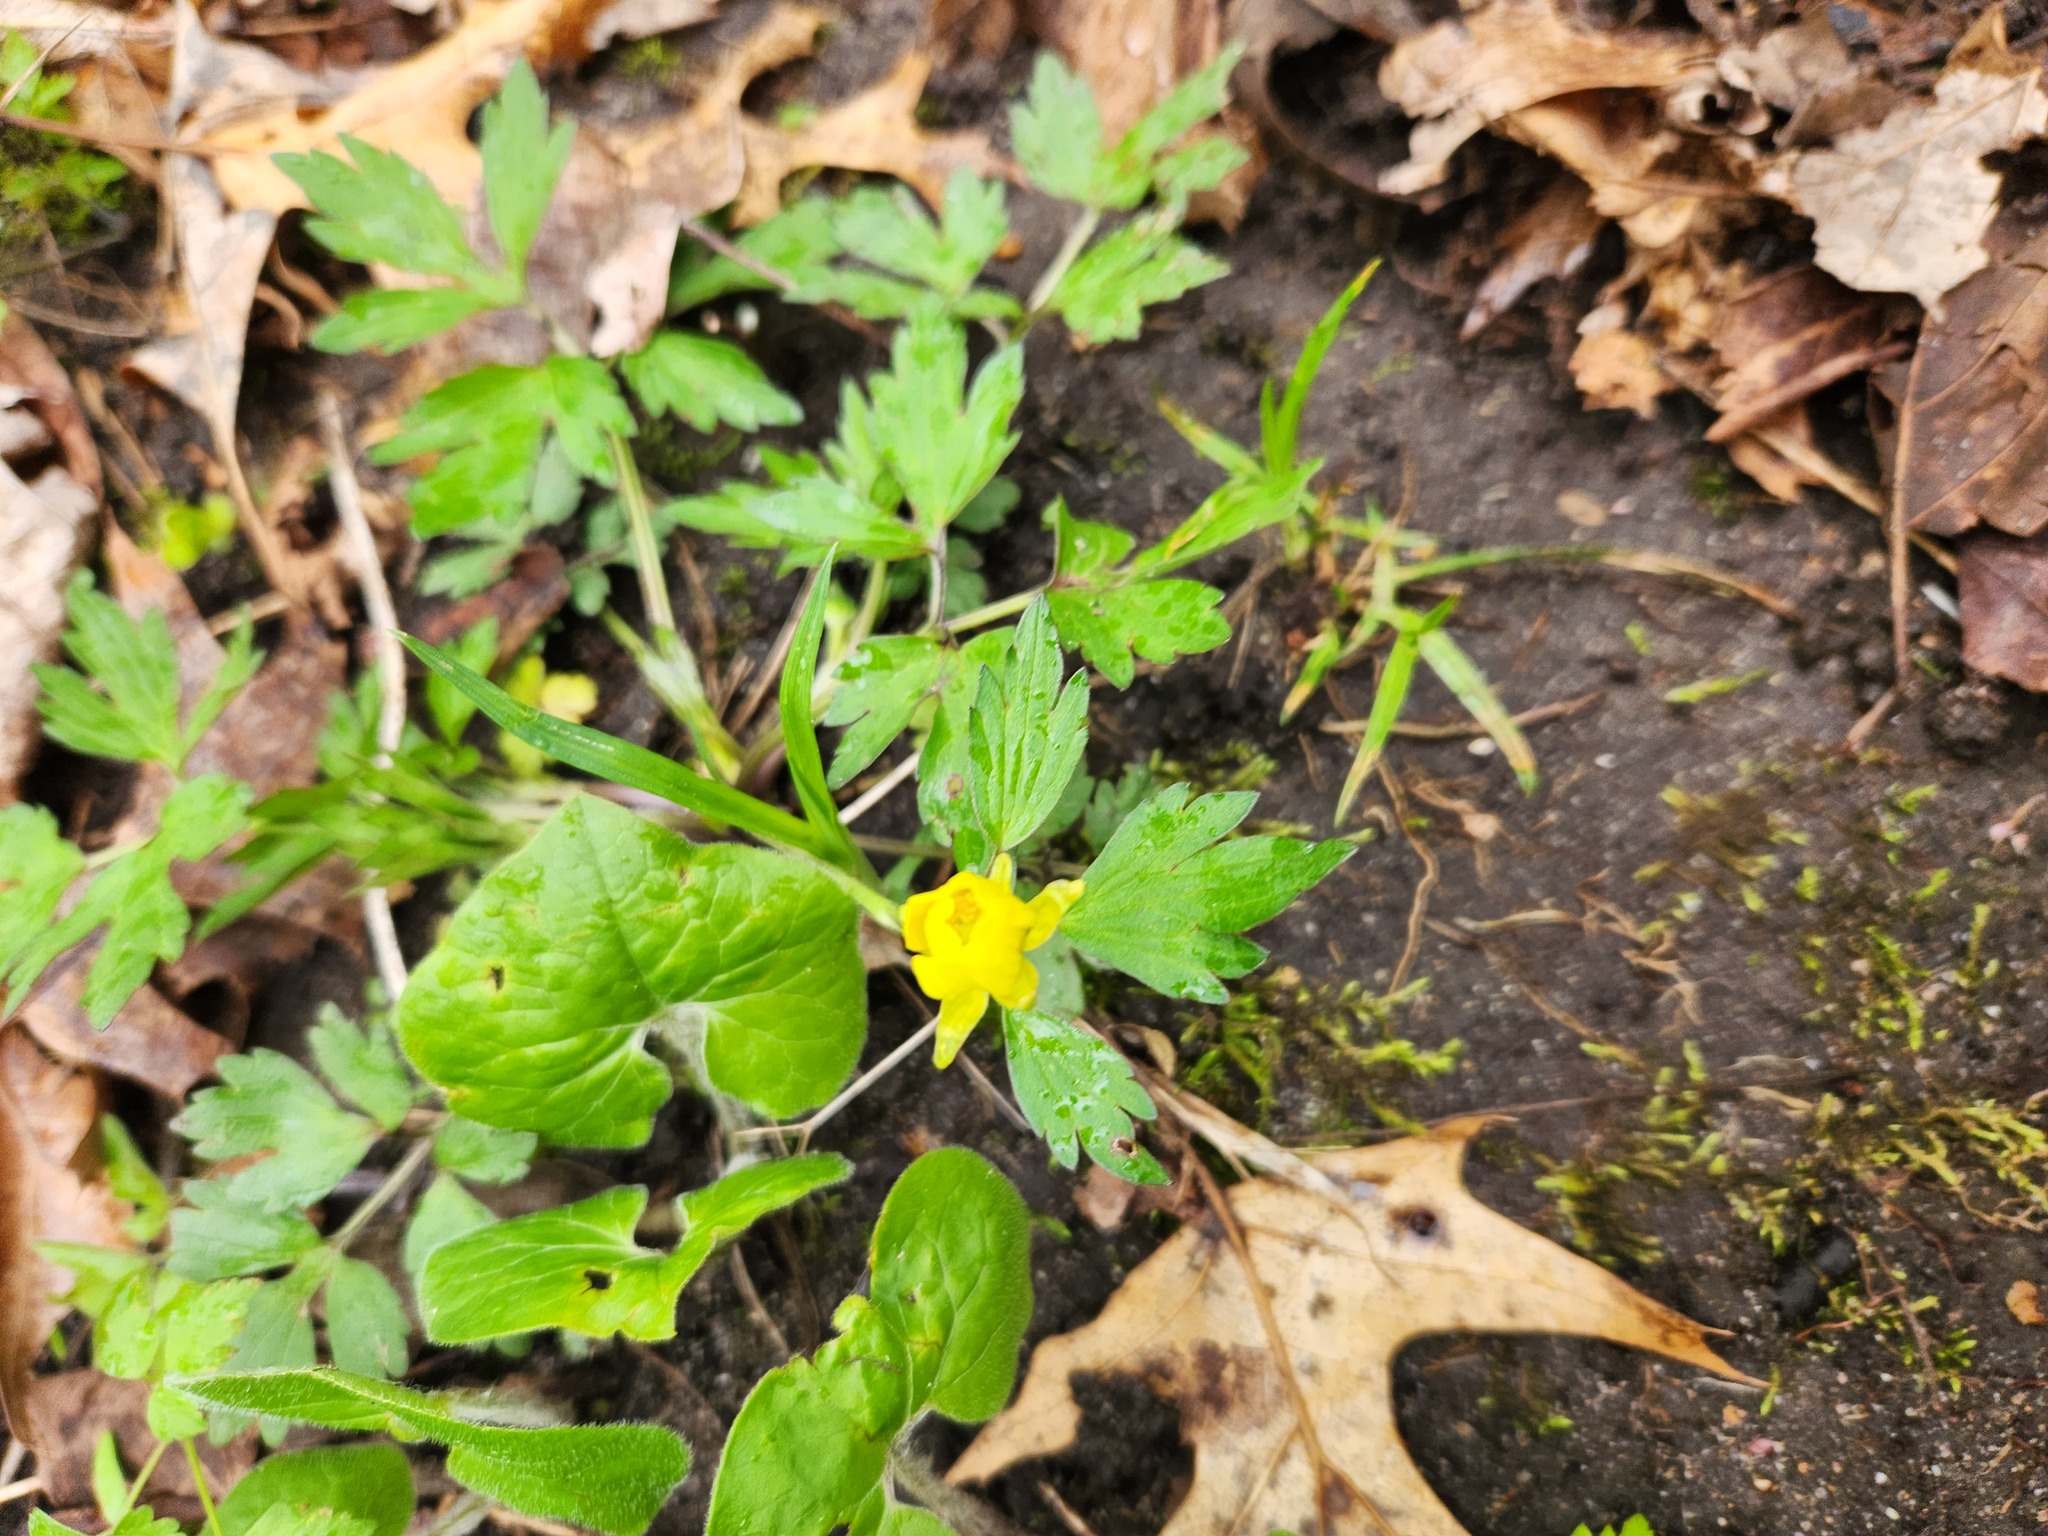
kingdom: Plantae
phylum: Tracheophyta
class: Magnoliopsida
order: Ranunculales
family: Ranunculaceae
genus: Ranunculus
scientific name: Ranunculus hispidus
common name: Bristly buttercup
